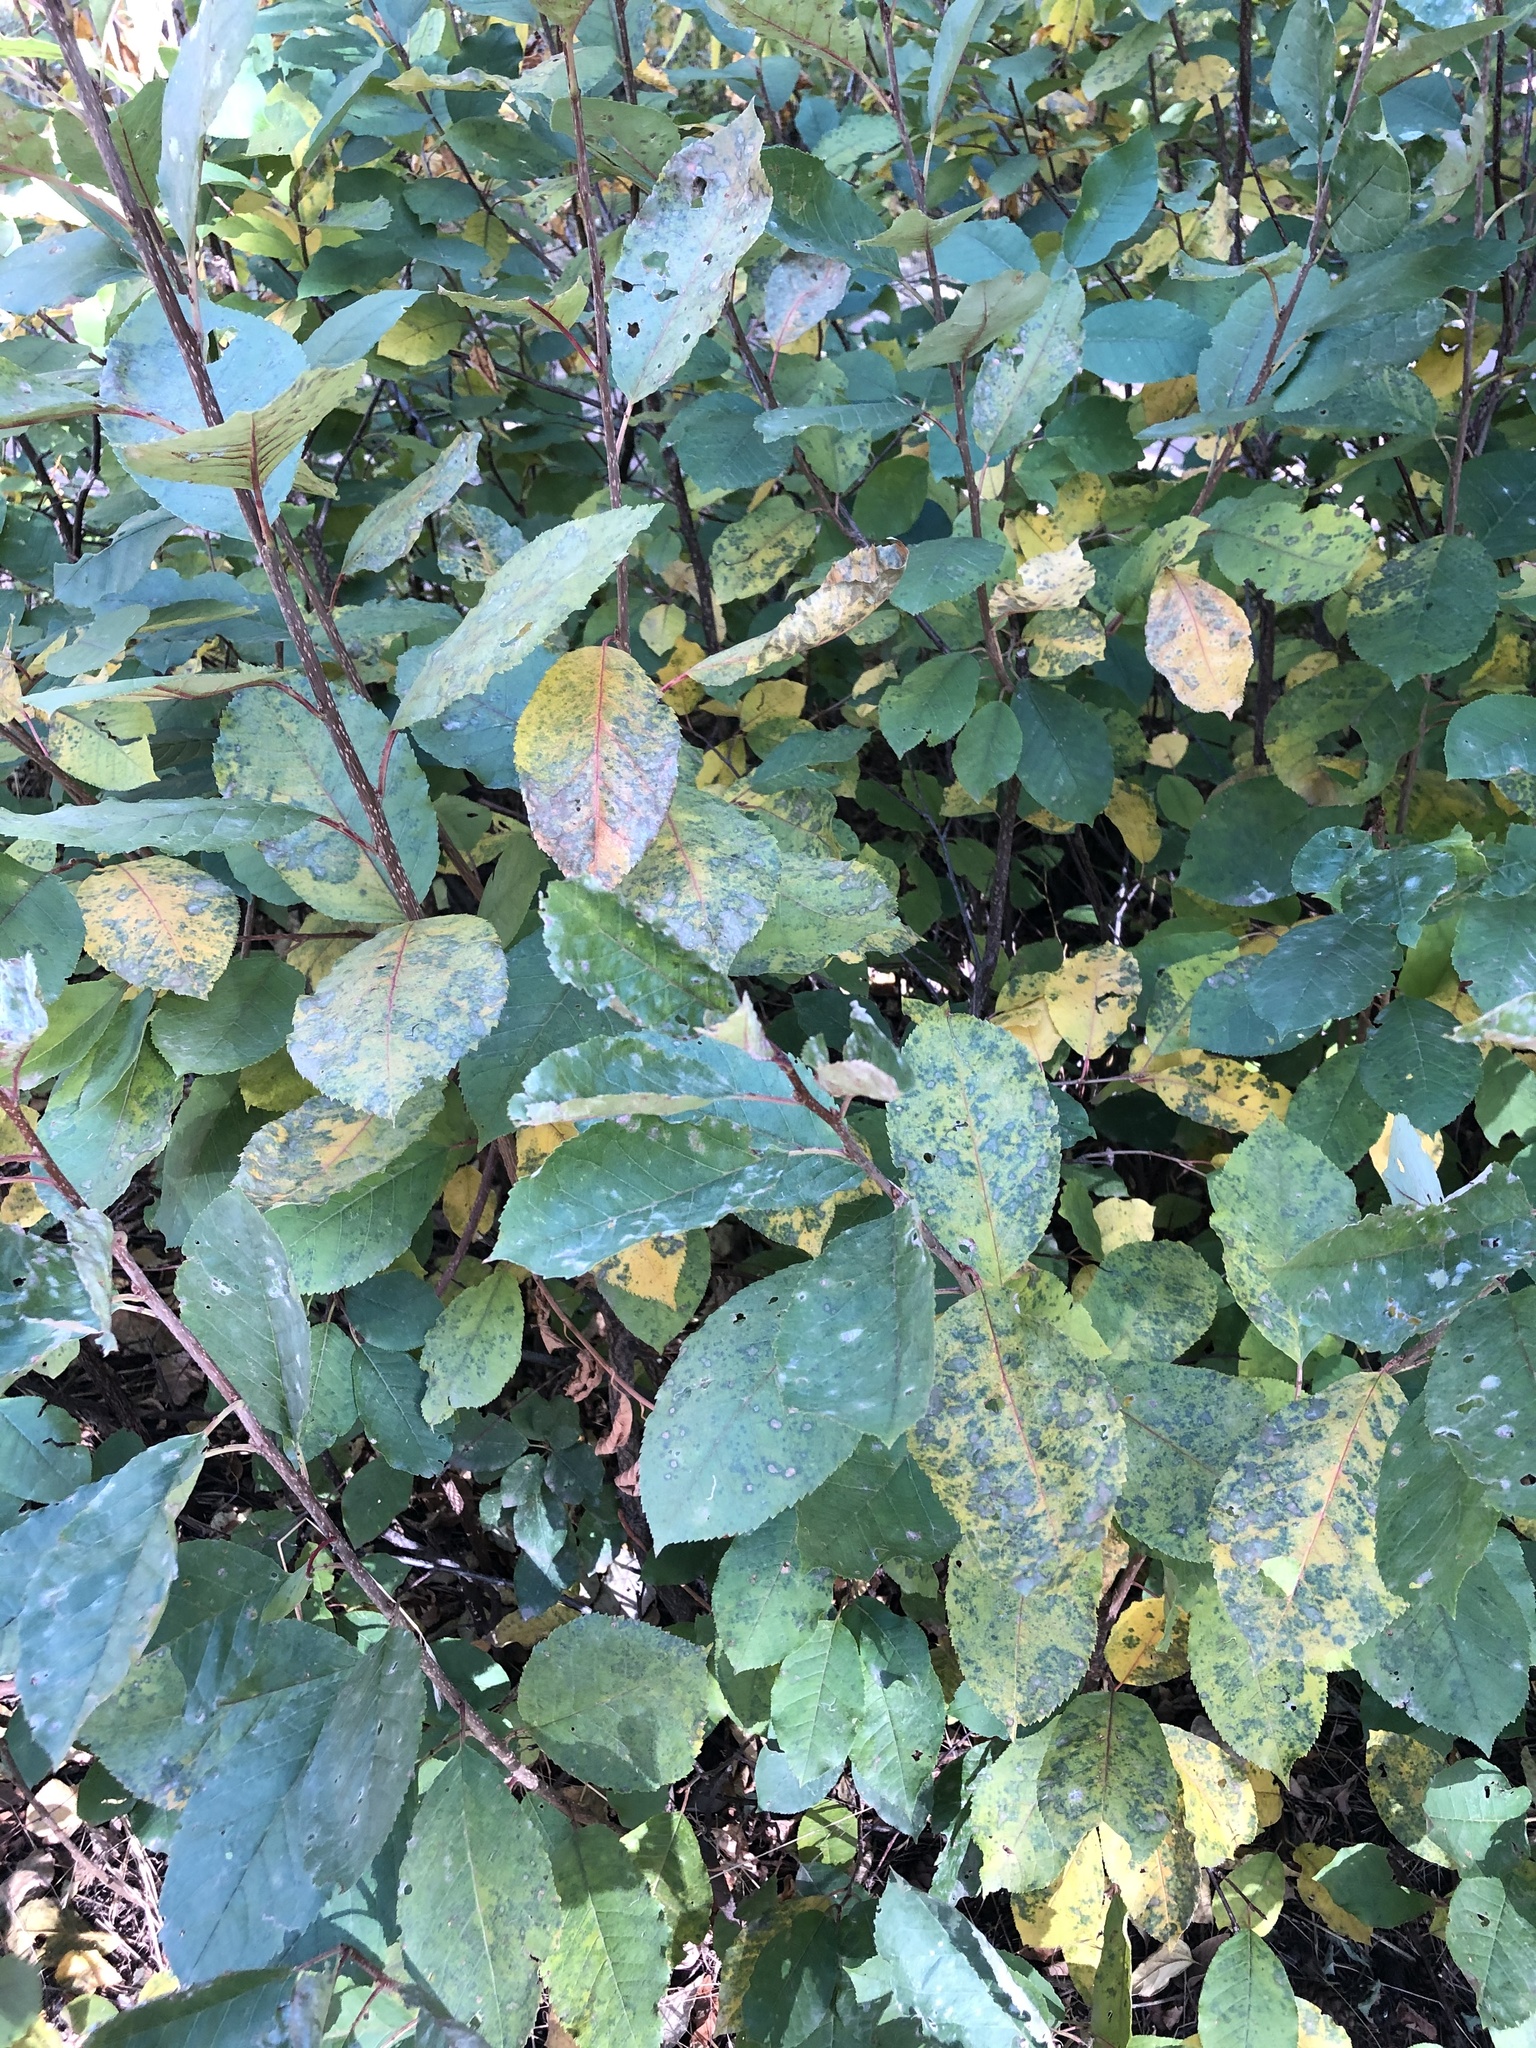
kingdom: Plantae
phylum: Tracheophyta
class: Magnoliopsida
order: Rosales
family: Rosaceae
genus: Prunus
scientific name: Prunus virginiana
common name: Chokecherry
